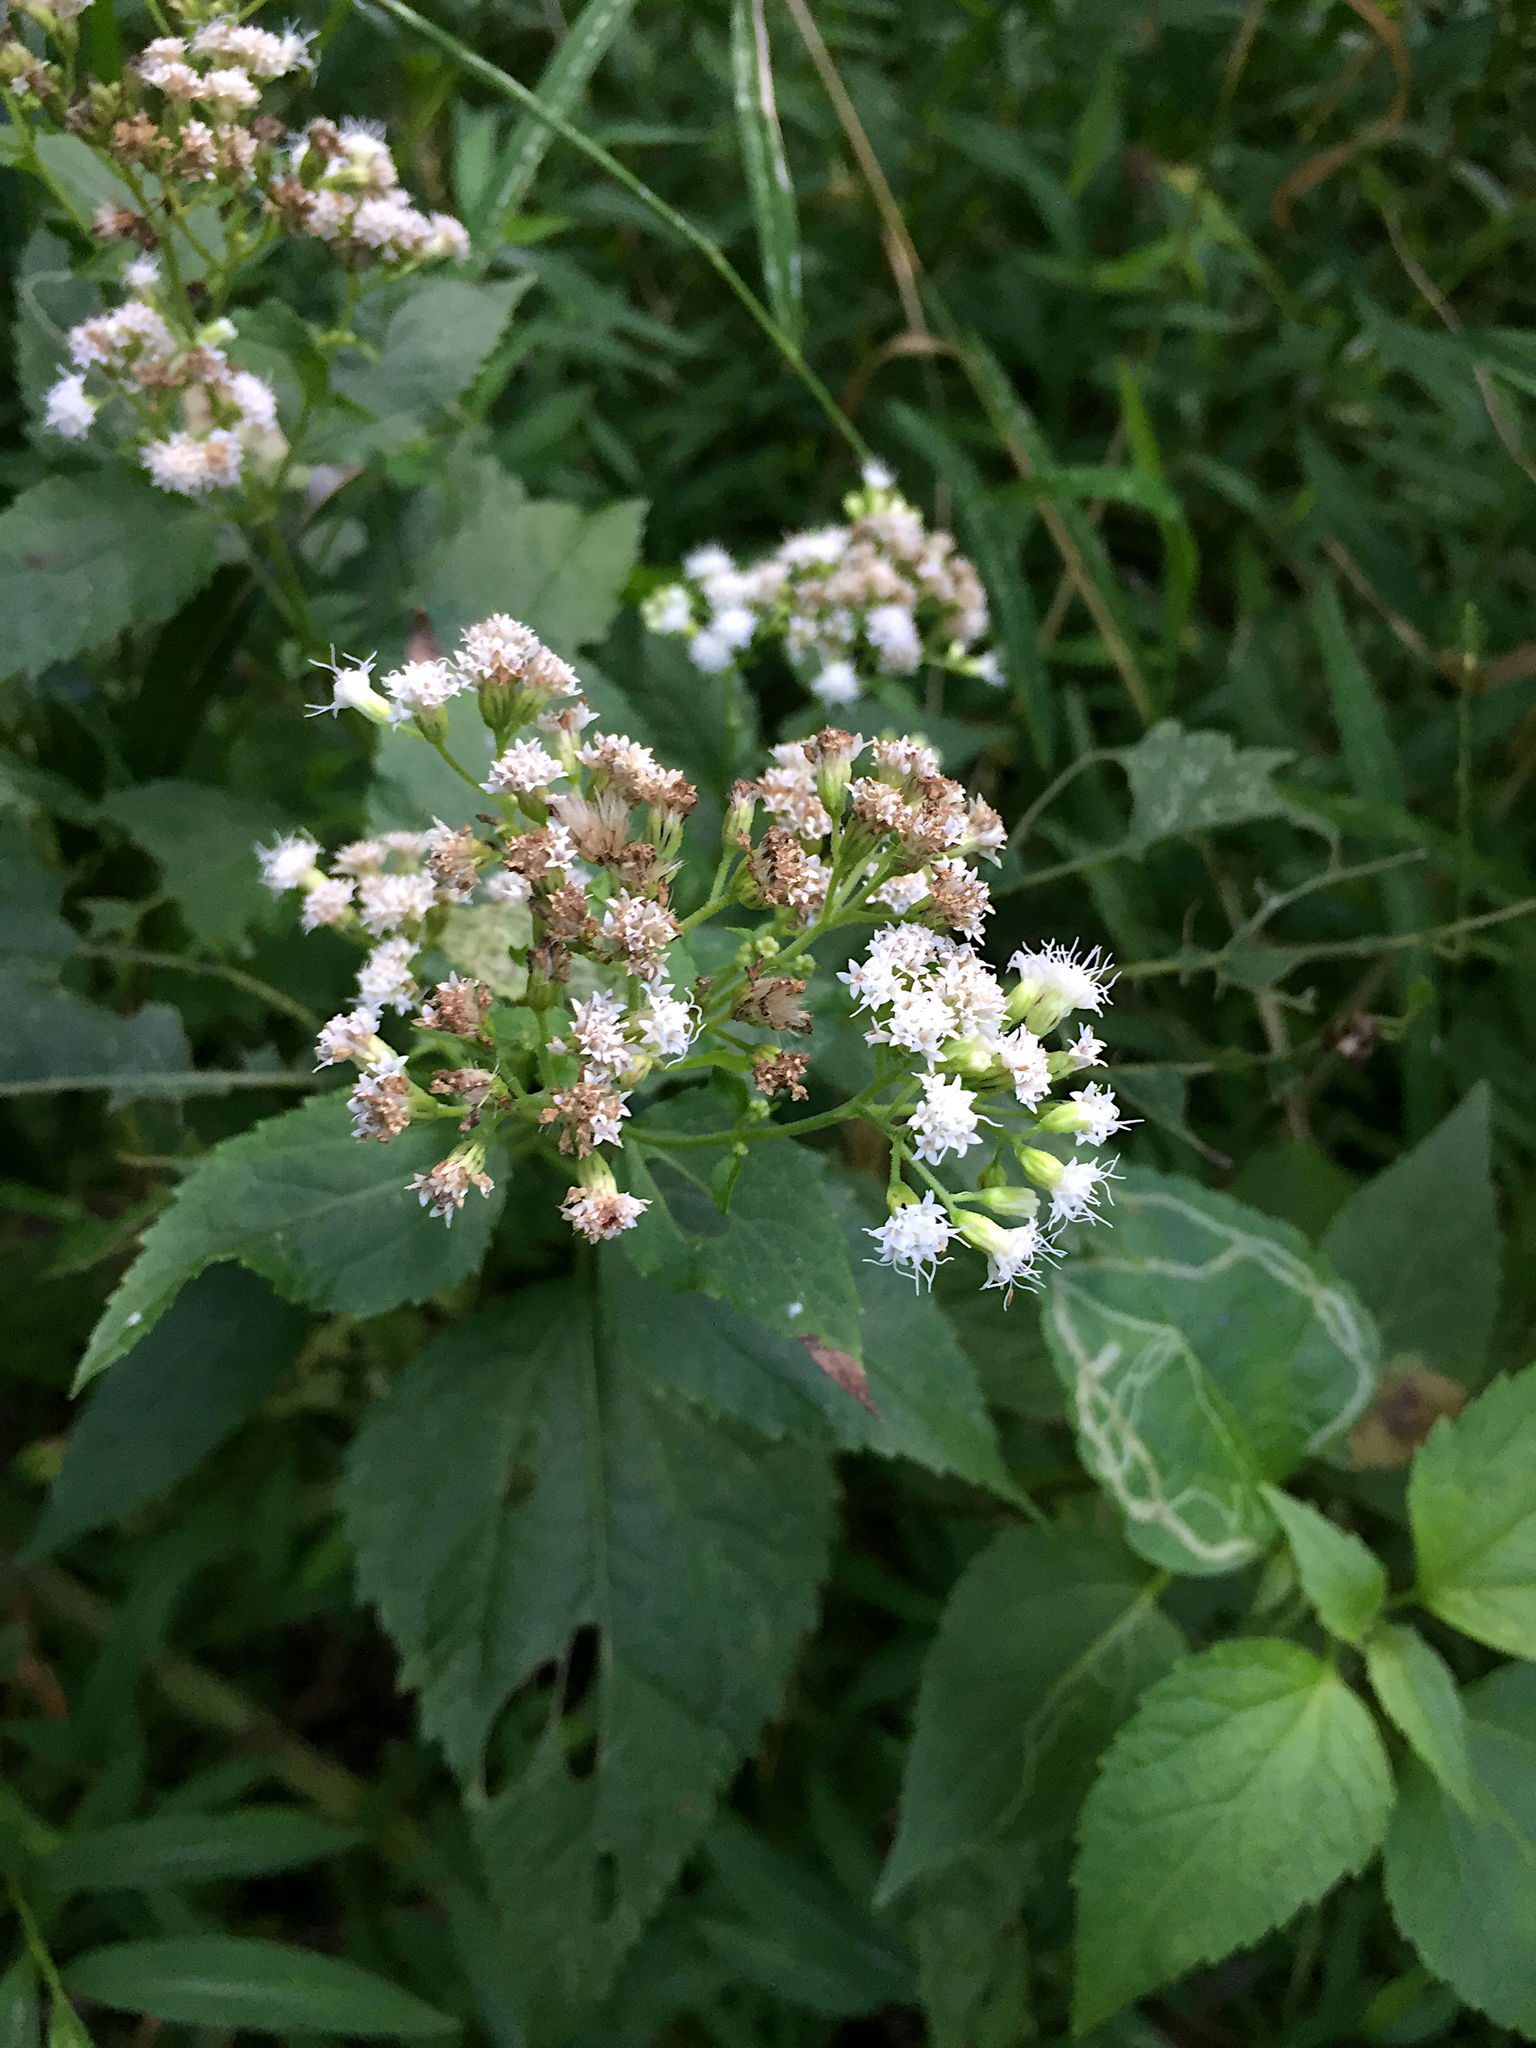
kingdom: Plantae
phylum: Tracheophyta
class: Magnoliopsida
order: Asterales
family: Asteraceae
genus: Ageratina
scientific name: Ageratina altissima
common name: White snakeroot
